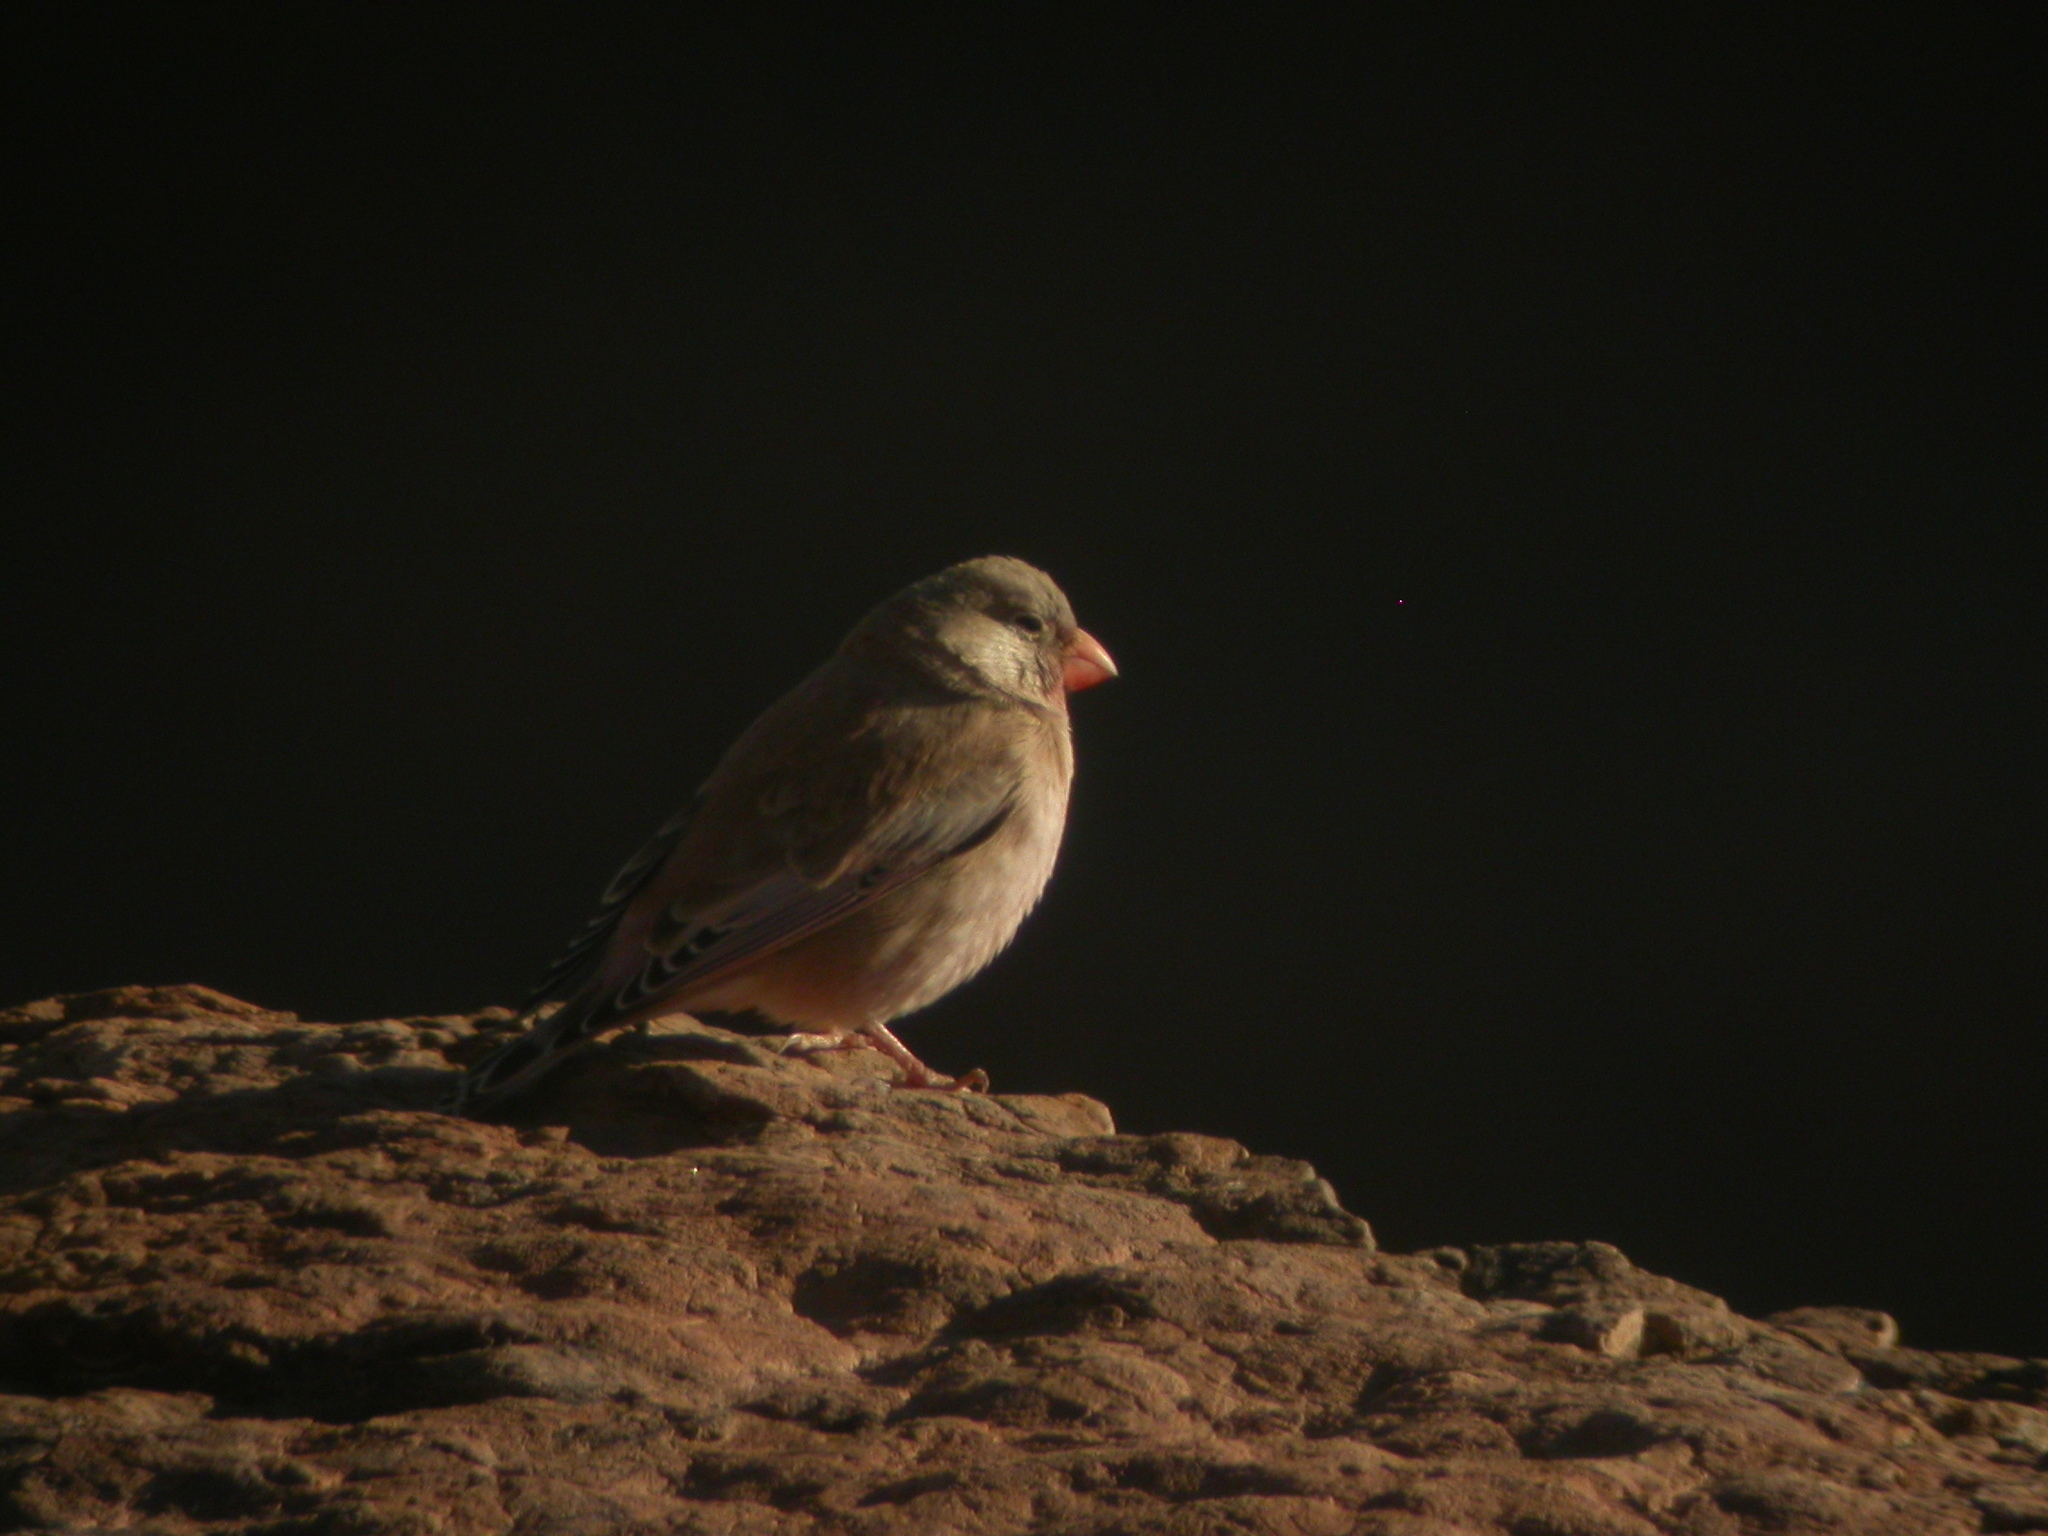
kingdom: Animalia
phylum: Chordata
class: Aves
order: Passeriformes
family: Fringillidae
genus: Bucanetes
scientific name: Bucanetes githagineus
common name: Trumpeter finch
